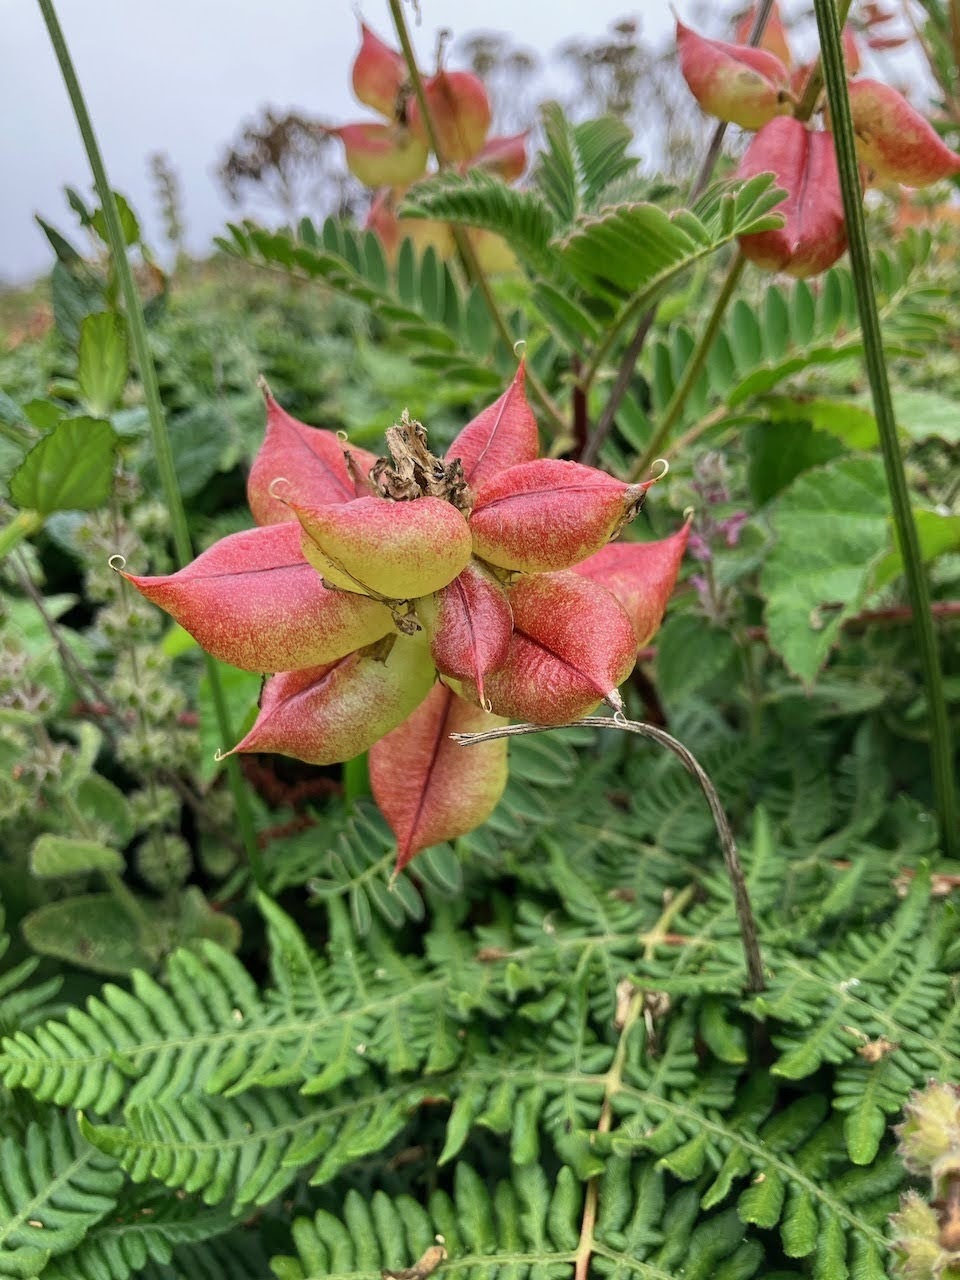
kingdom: Plantae
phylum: Tracheophyta
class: Magnoliopsida
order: Fabales
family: Fabaceae
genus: Astragalus
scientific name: Astragalus nuttallii
